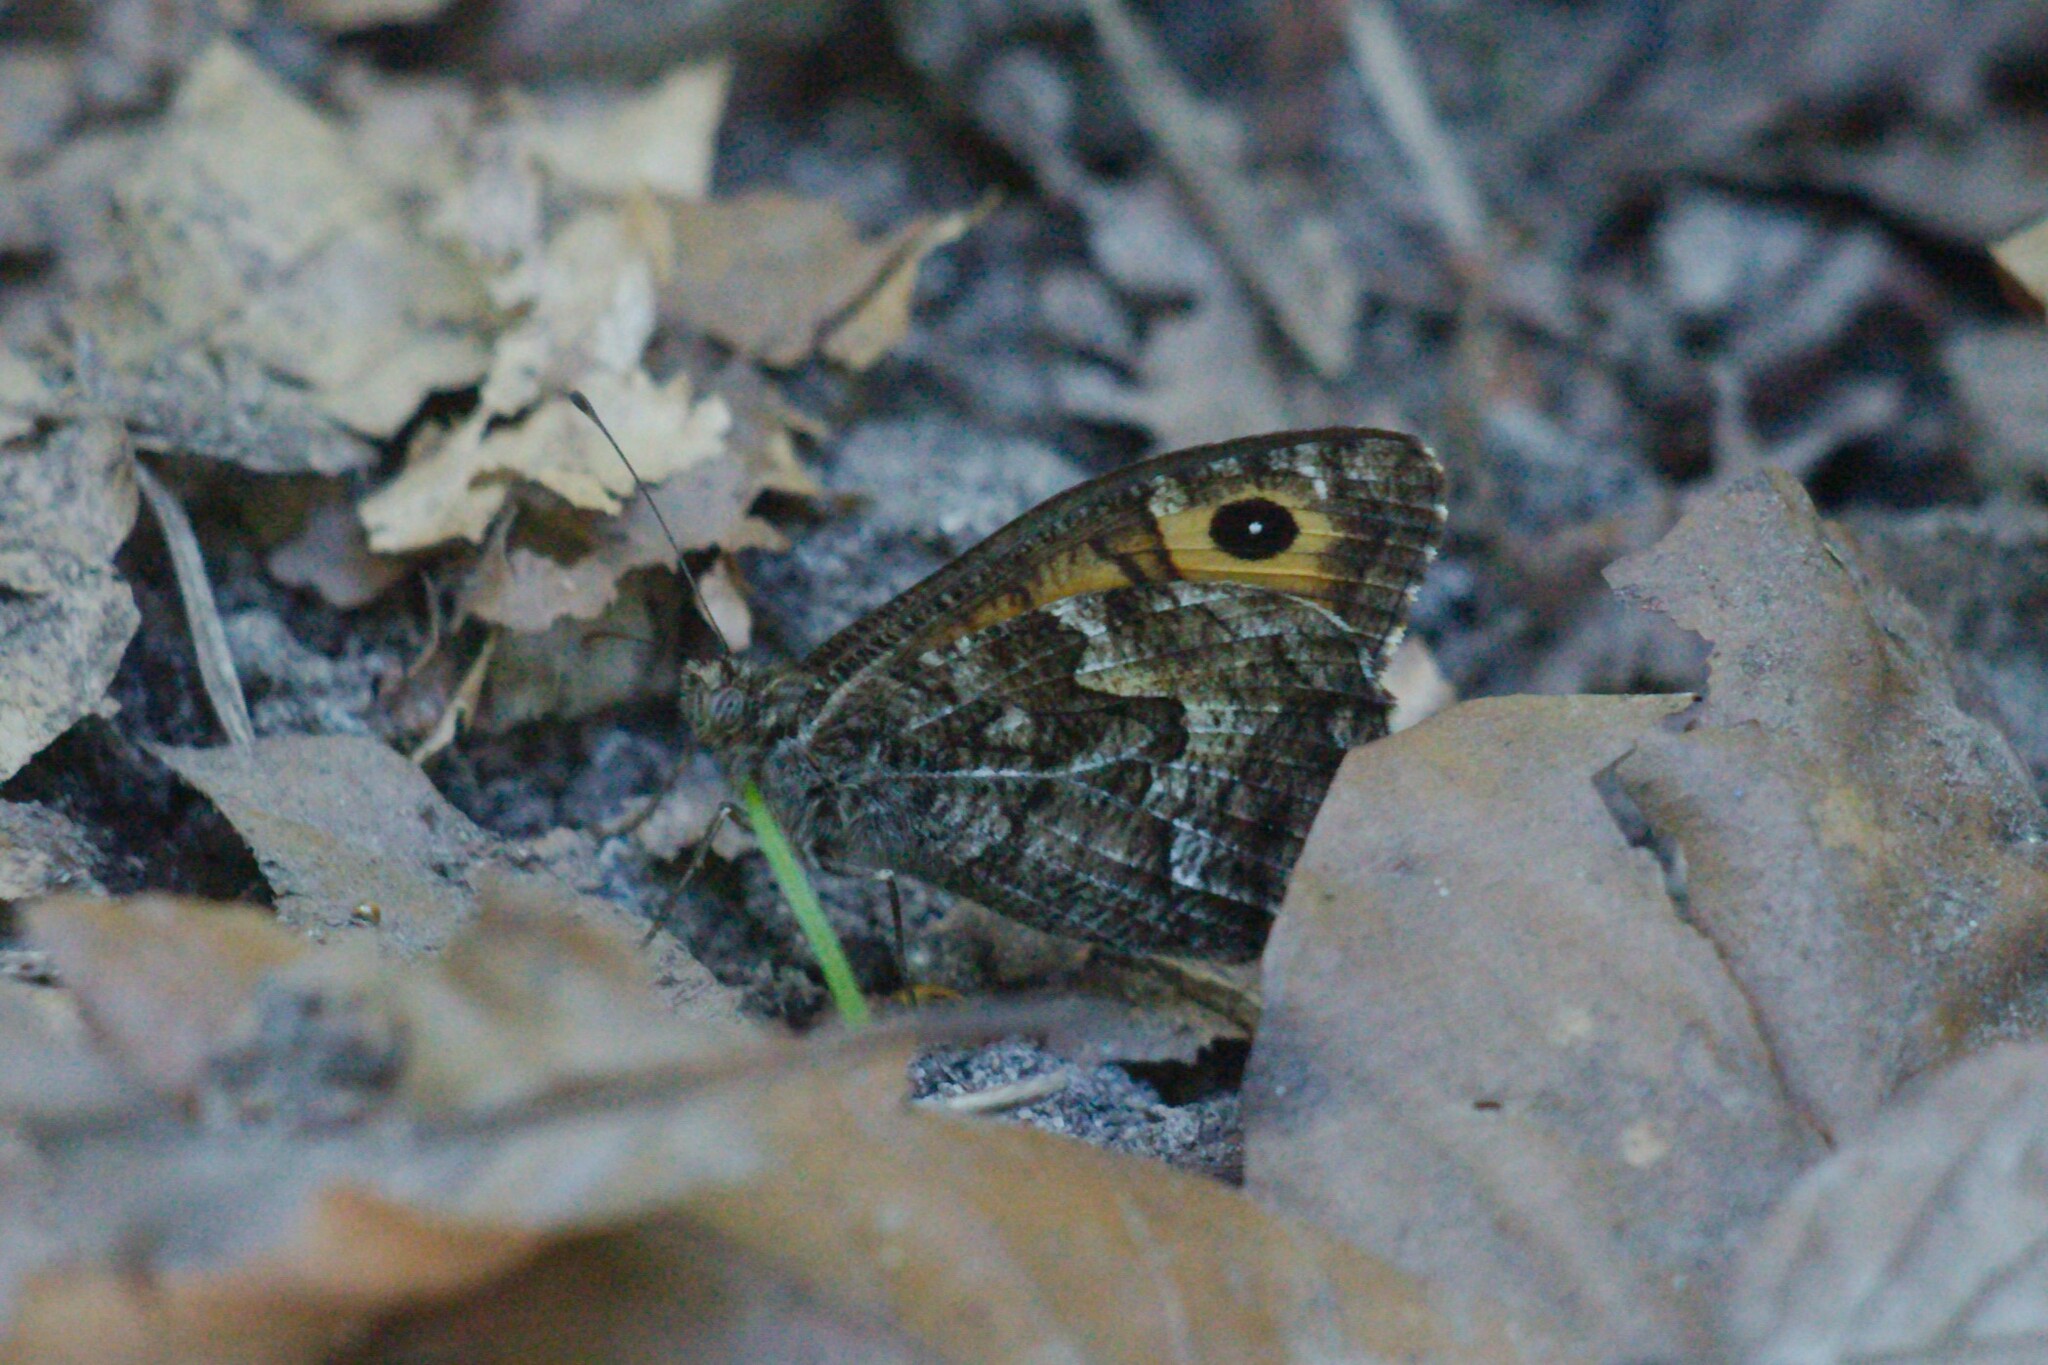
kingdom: Animalia
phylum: Arthropoda
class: Insecta
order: Lepidoptera
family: Nymphalidae
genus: Hipparchia
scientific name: Hipparchia semele
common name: Grayling
